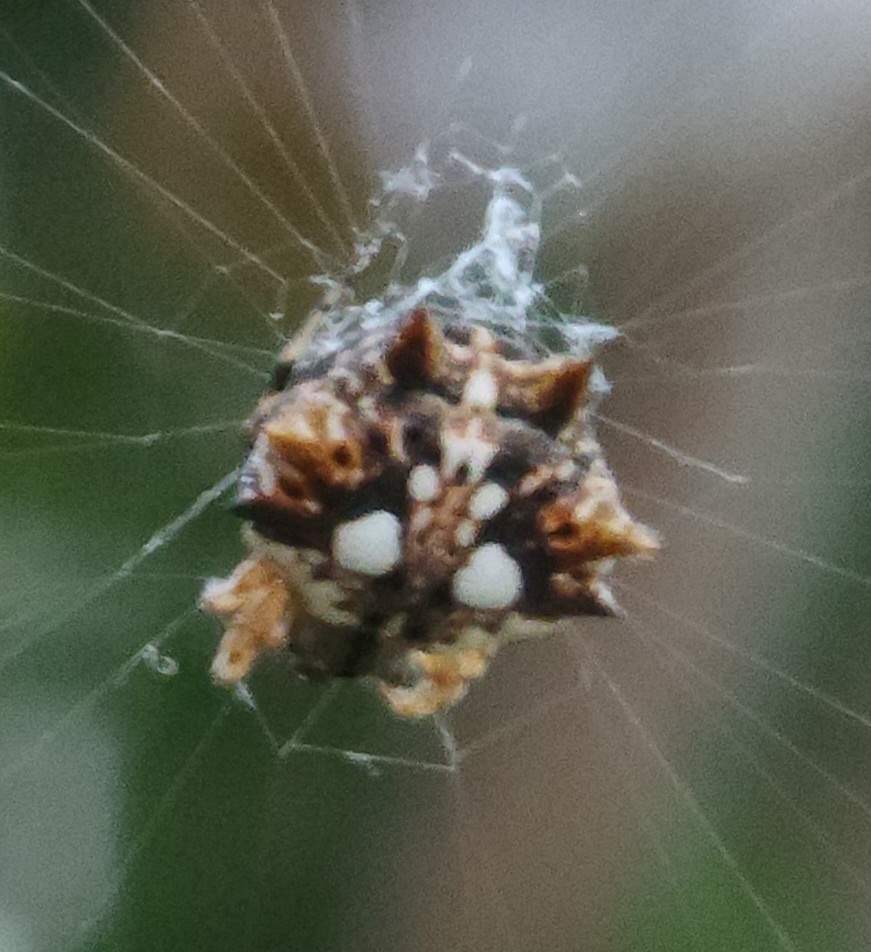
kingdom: Animalia
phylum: Arthropoda
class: Arachnida
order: Araneae
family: Araneidae
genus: Thelacantha
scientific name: Thelacantha brevispina
